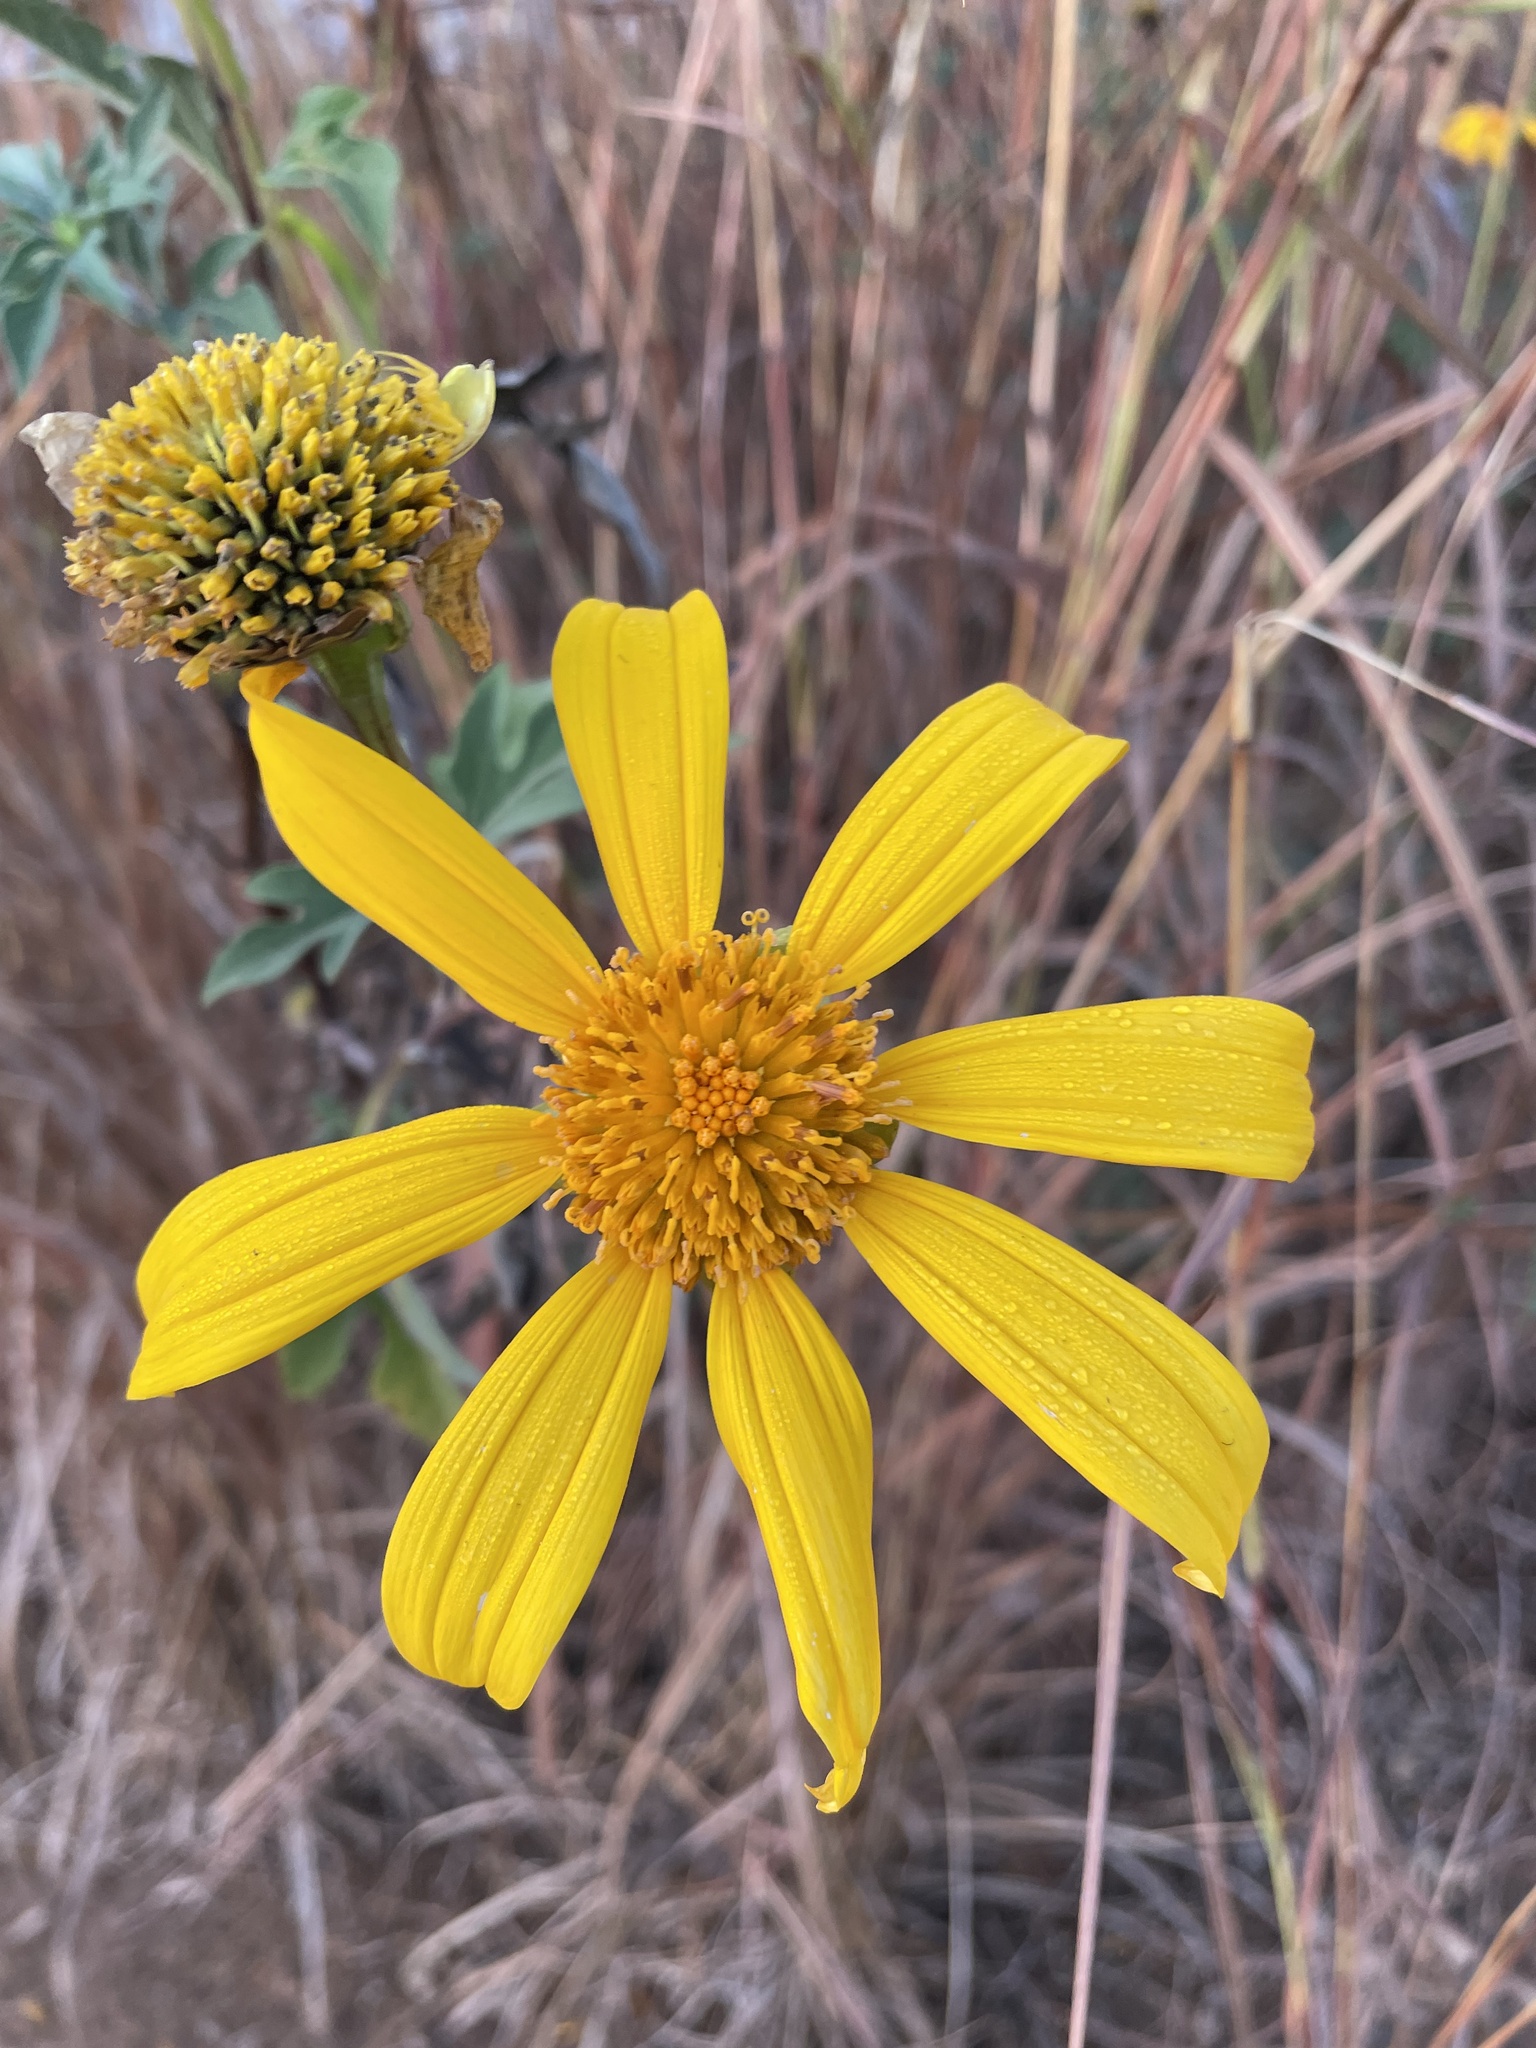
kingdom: Plantae
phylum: Tracheophyta
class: Magnoliopsida
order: Asterales
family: Asteraceae
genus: Tithonia
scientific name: Tithonia diversifolia
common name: Tree marigold
